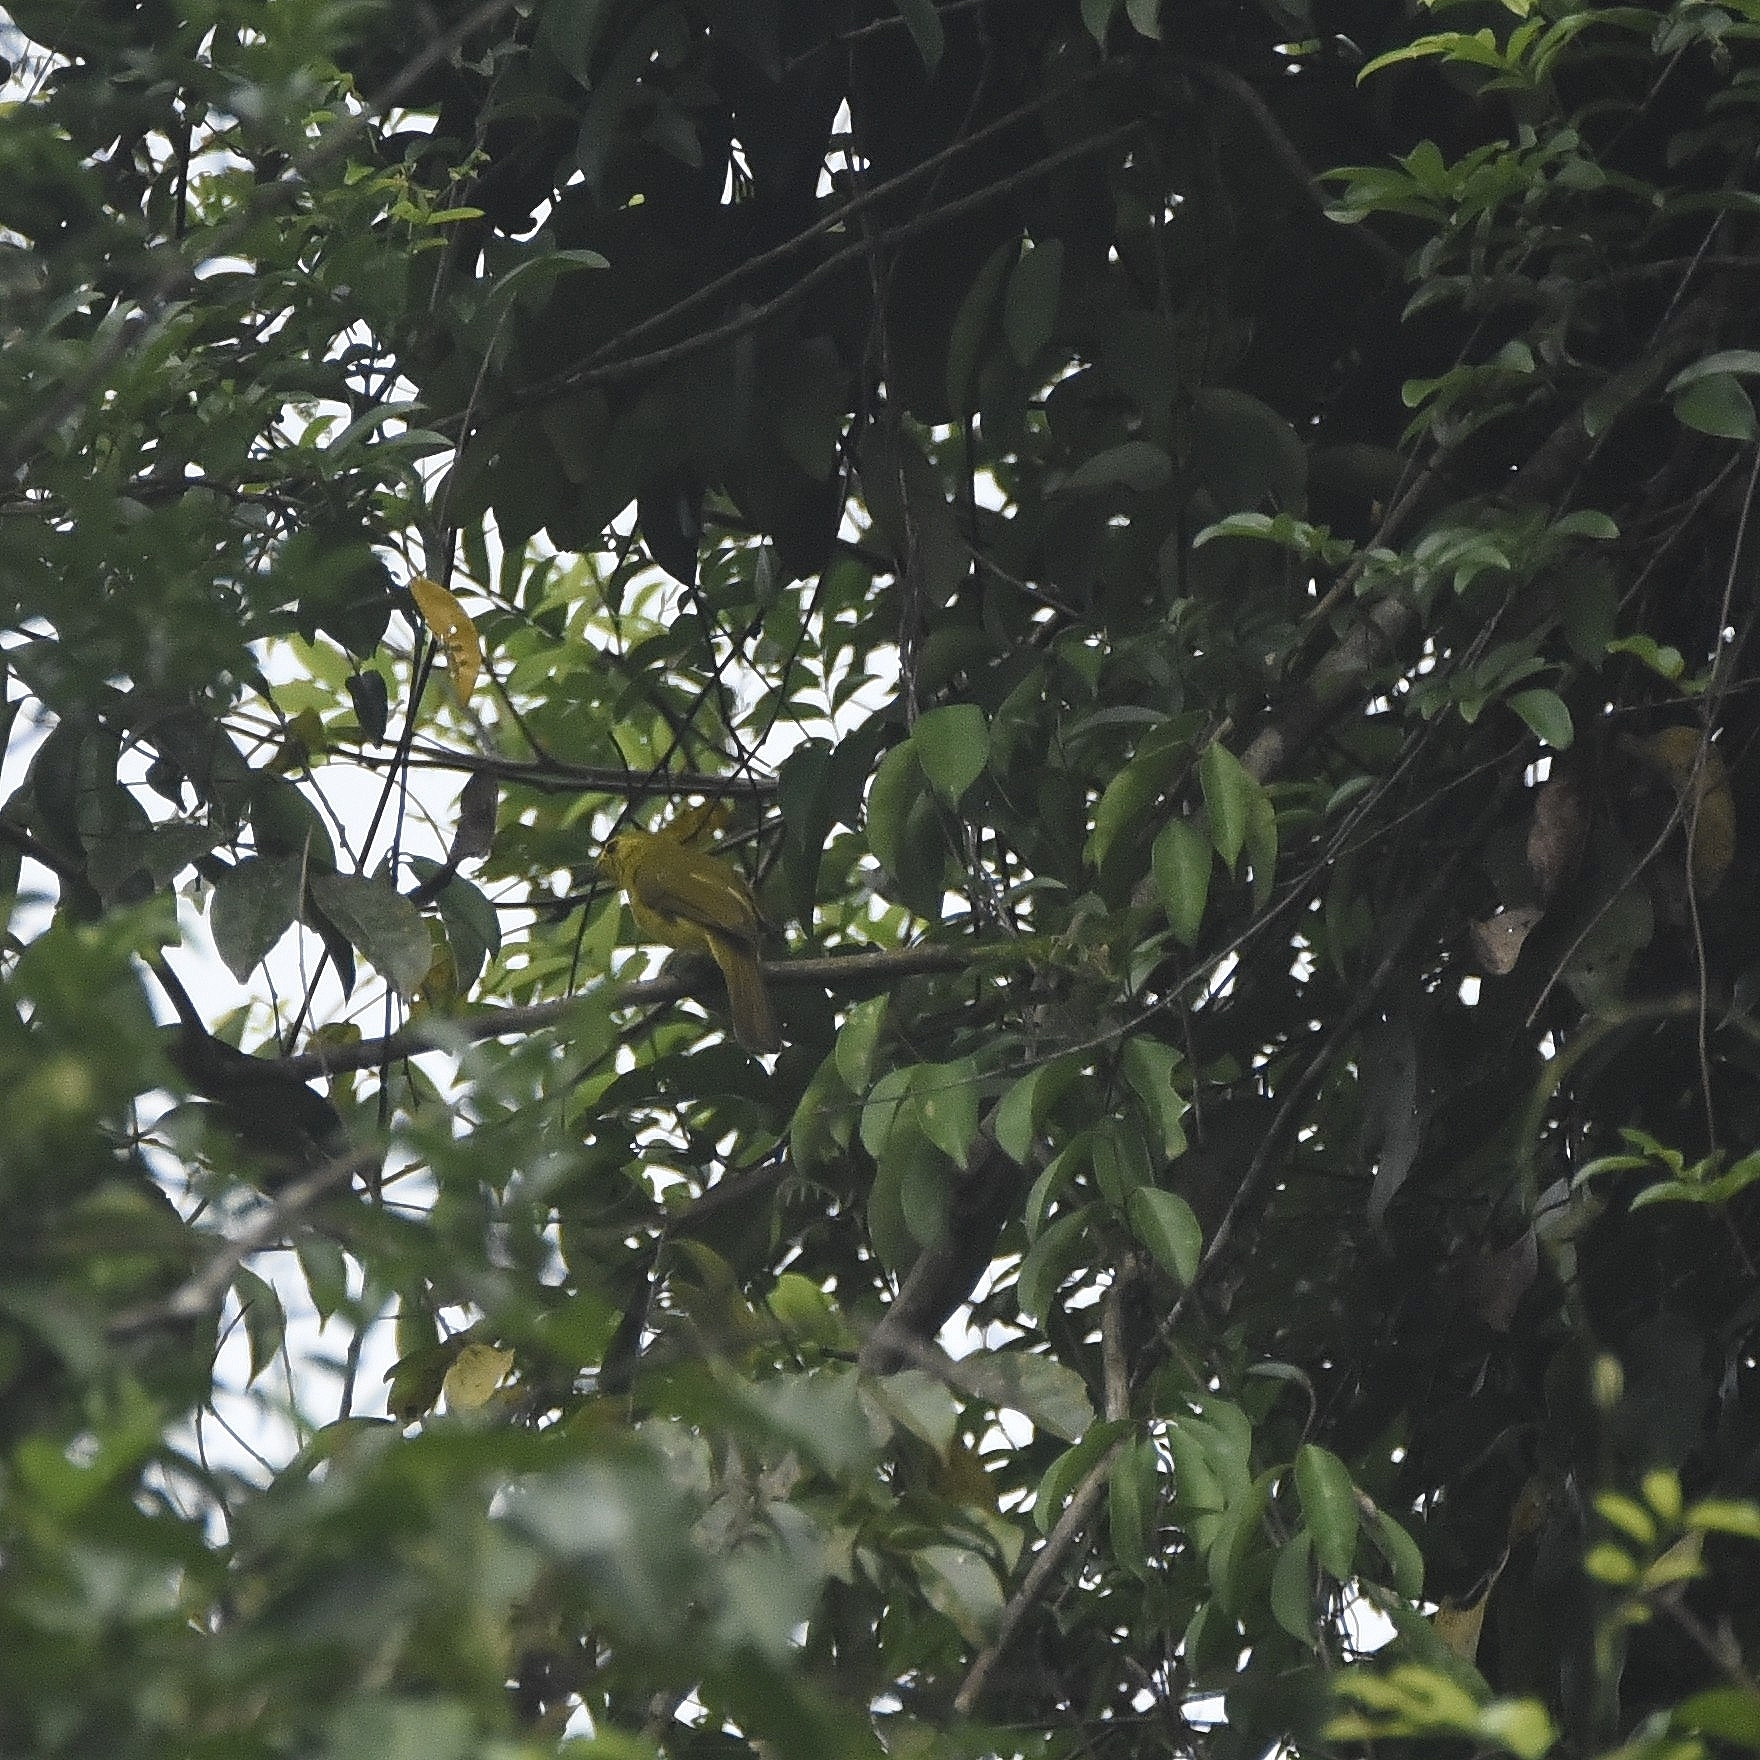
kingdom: Animalia
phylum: Chordata
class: Aves
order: Passeriformes
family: Pycnonotidae
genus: Acritillas
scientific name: Acritillas indica
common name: Yellow-browed bulbul
